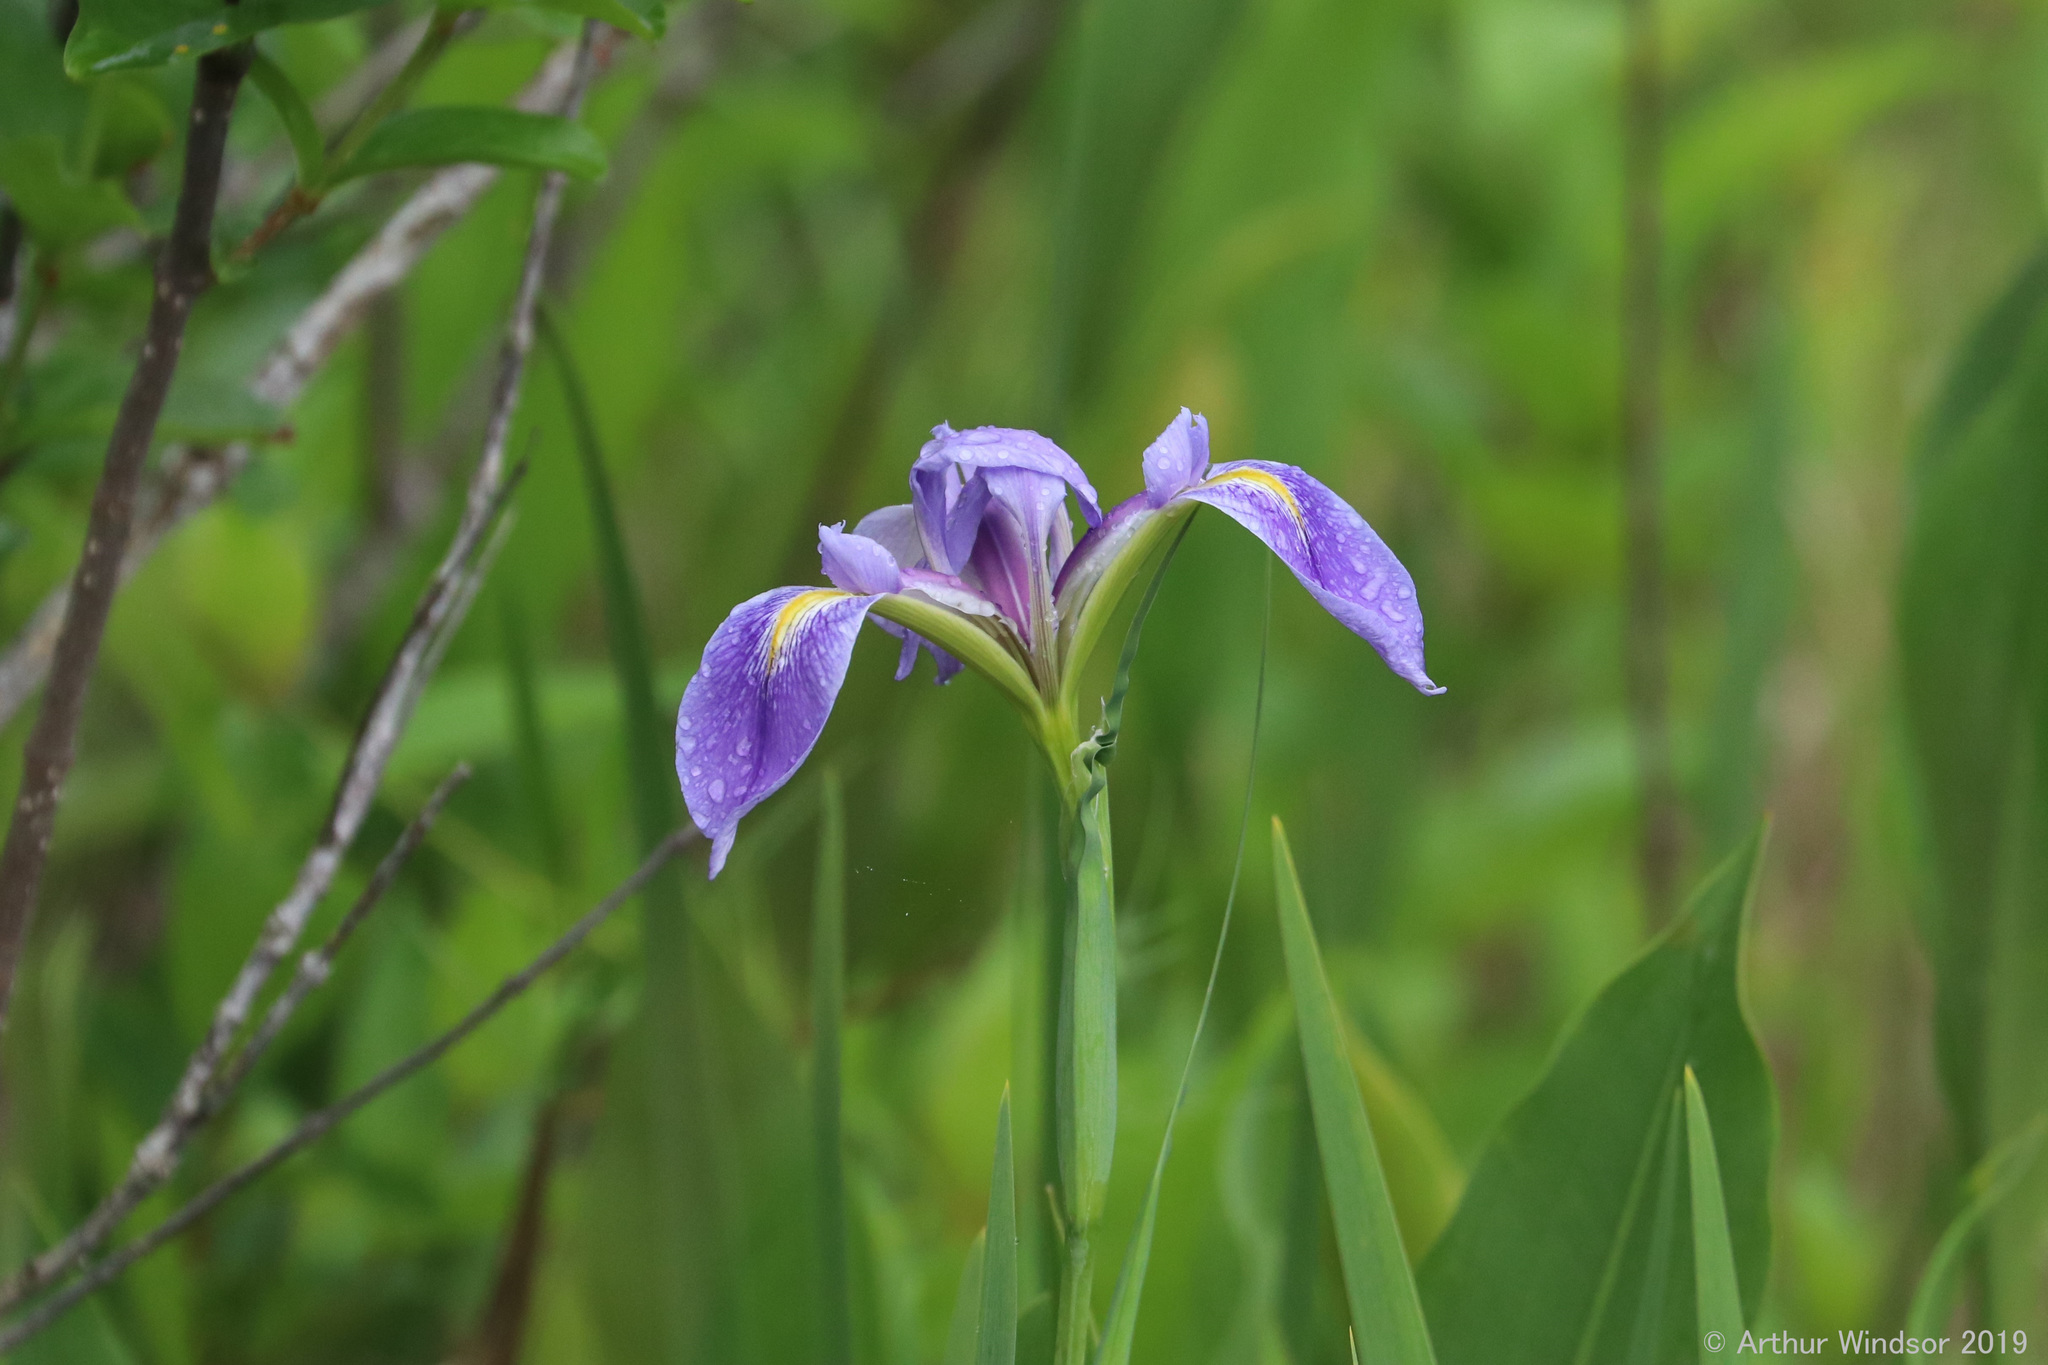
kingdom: Plantae
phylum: Tracheophyta
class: Liliopsida
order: Asparagales
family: Iridaceae
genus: Iris
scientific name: Iris savannarum
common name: Prairie iris
